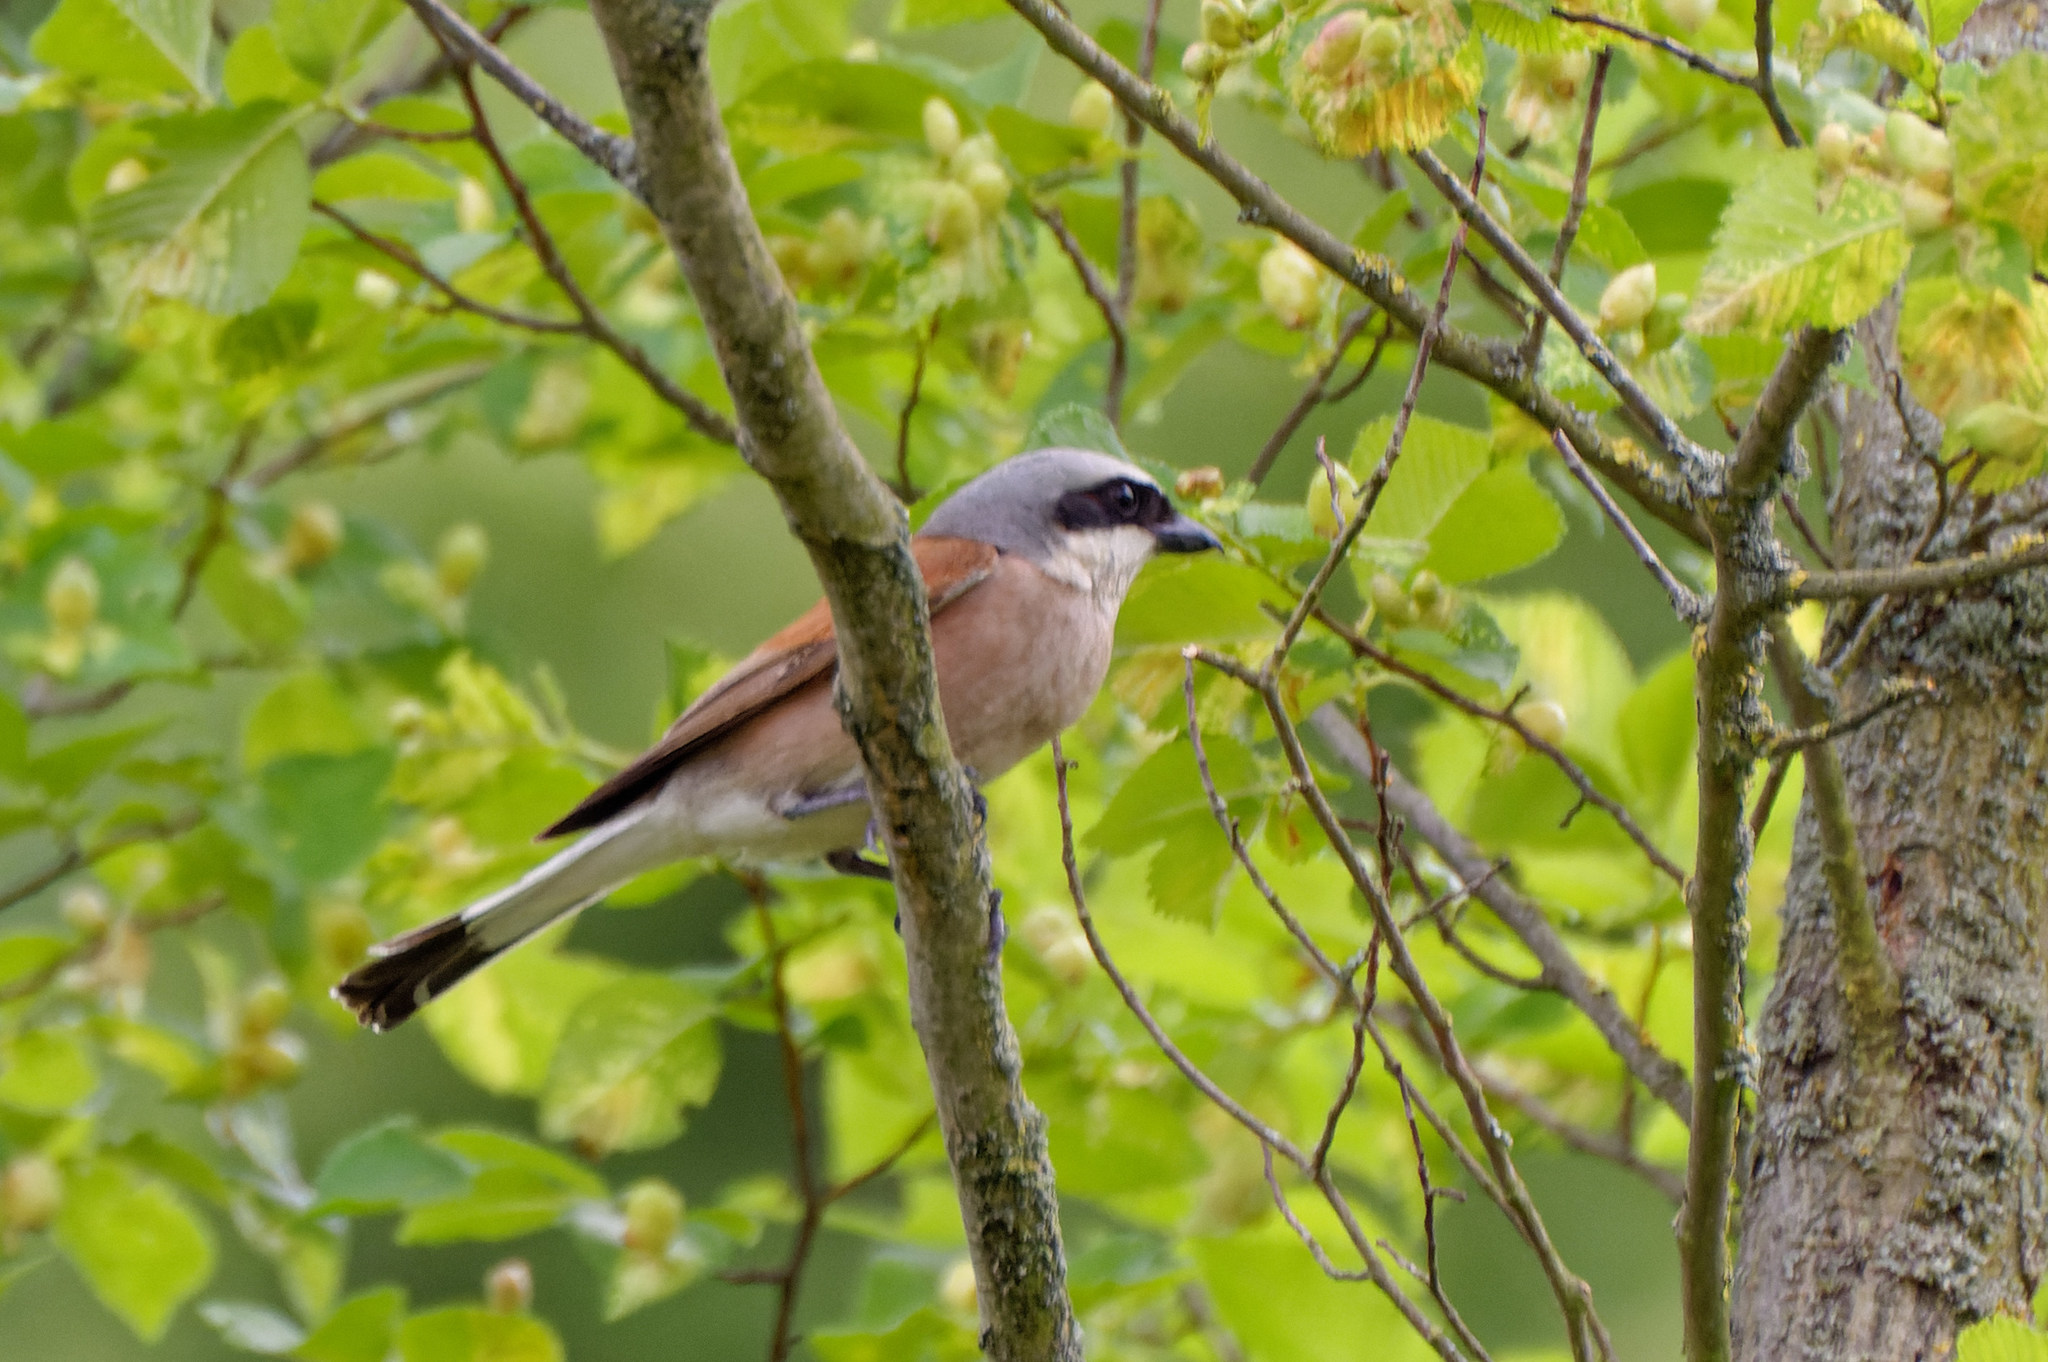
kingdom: Animalia
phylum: Chordata
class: Aves
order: Passeriformes
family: Laniidae
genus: Lanius
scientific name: Lanius collurio
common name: Red-backed shrike
